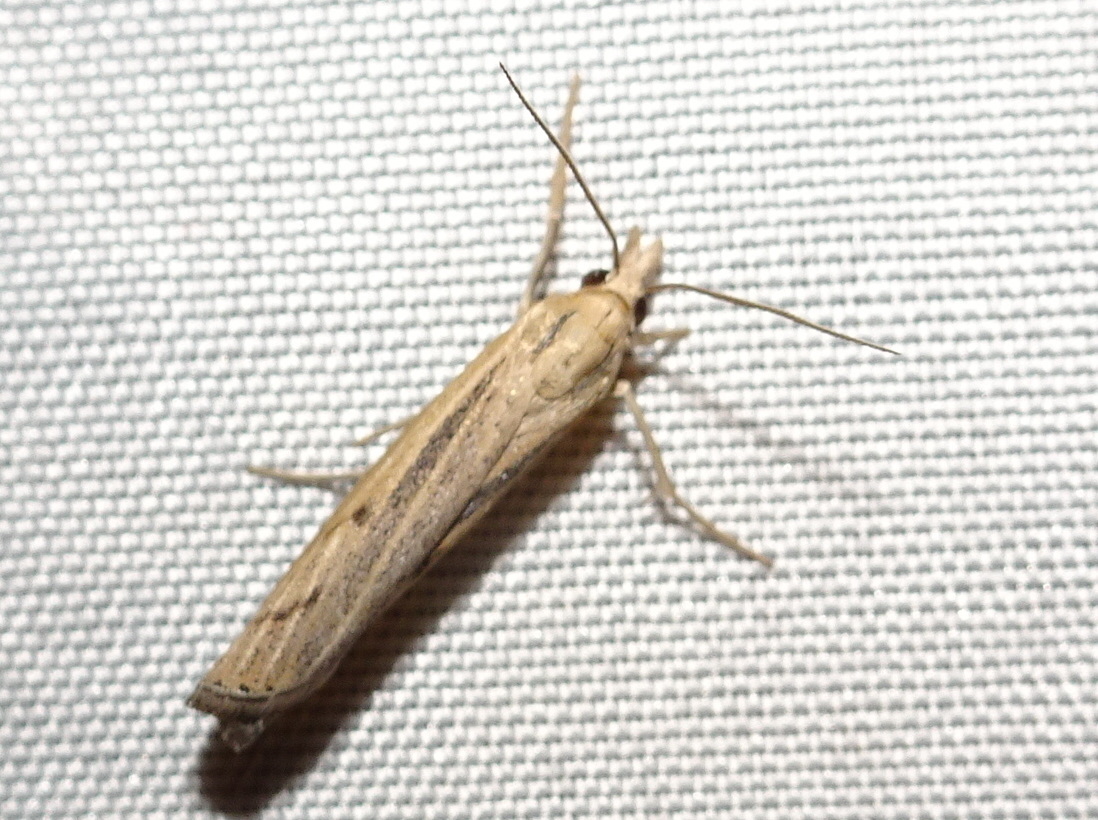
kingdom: Animalia
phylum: Arthropoda
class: Insecta
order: Lepidoptera
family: Crambidae
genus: Pediasia
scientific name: Pediasia trisecta
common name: Sod webworm moth
